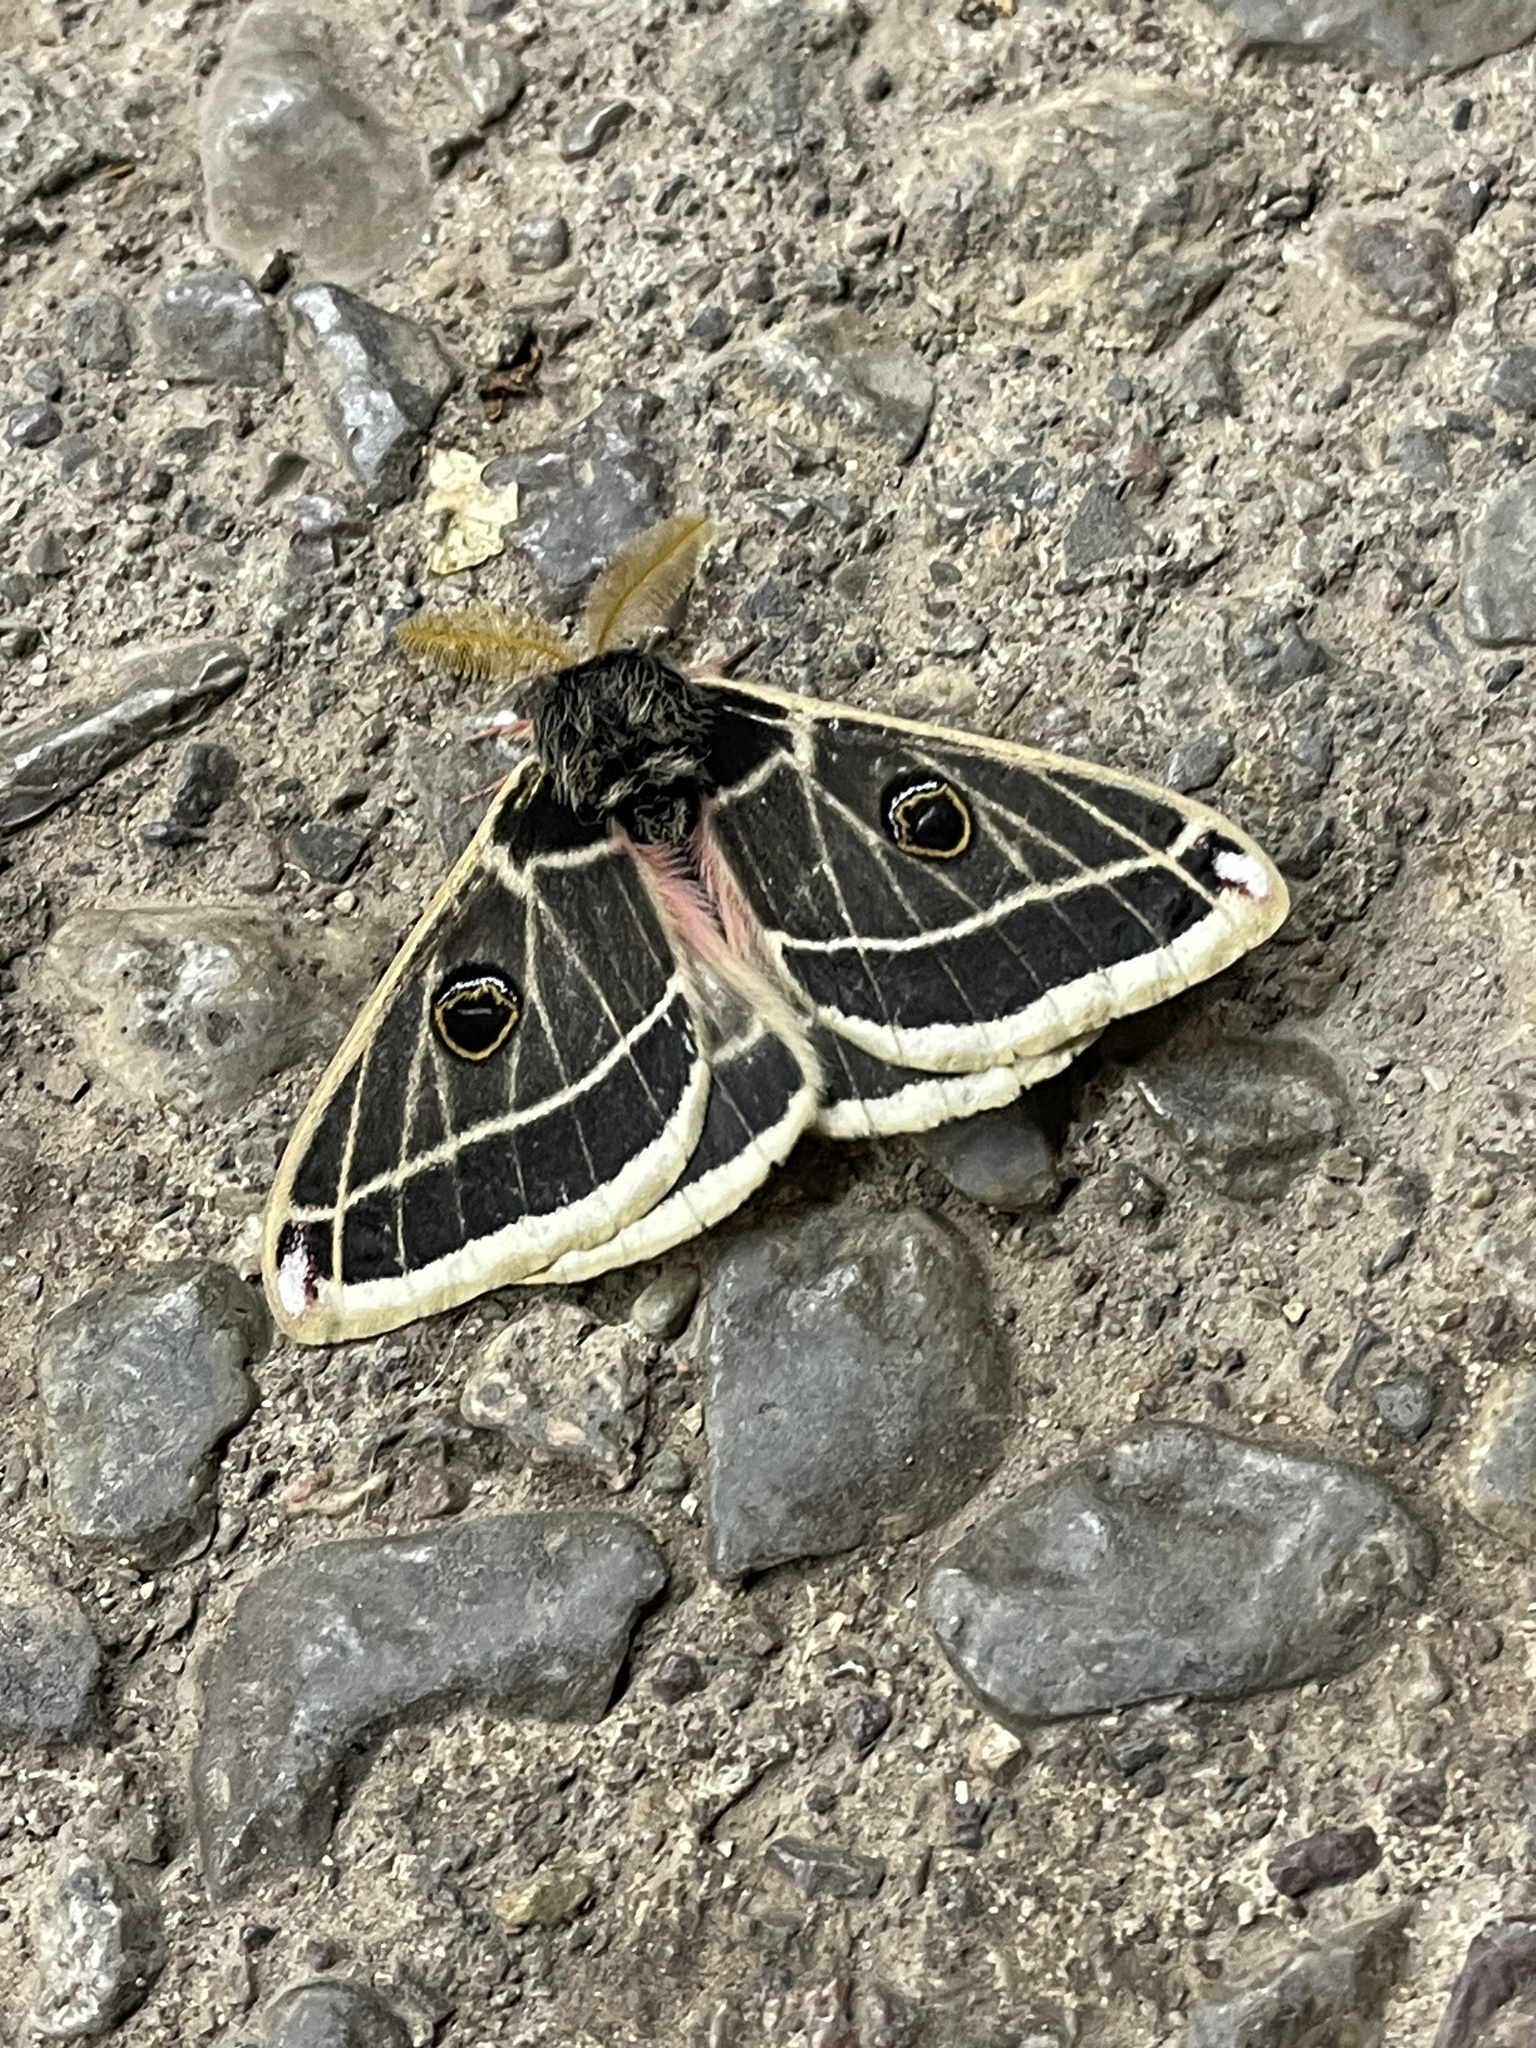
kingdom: Animalia
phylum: Arthropoda
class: Insecta
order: Lepidoptera
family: Saturniidae
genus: Agapema
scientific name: Agapema homogena
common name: Rocky mountain agapema
